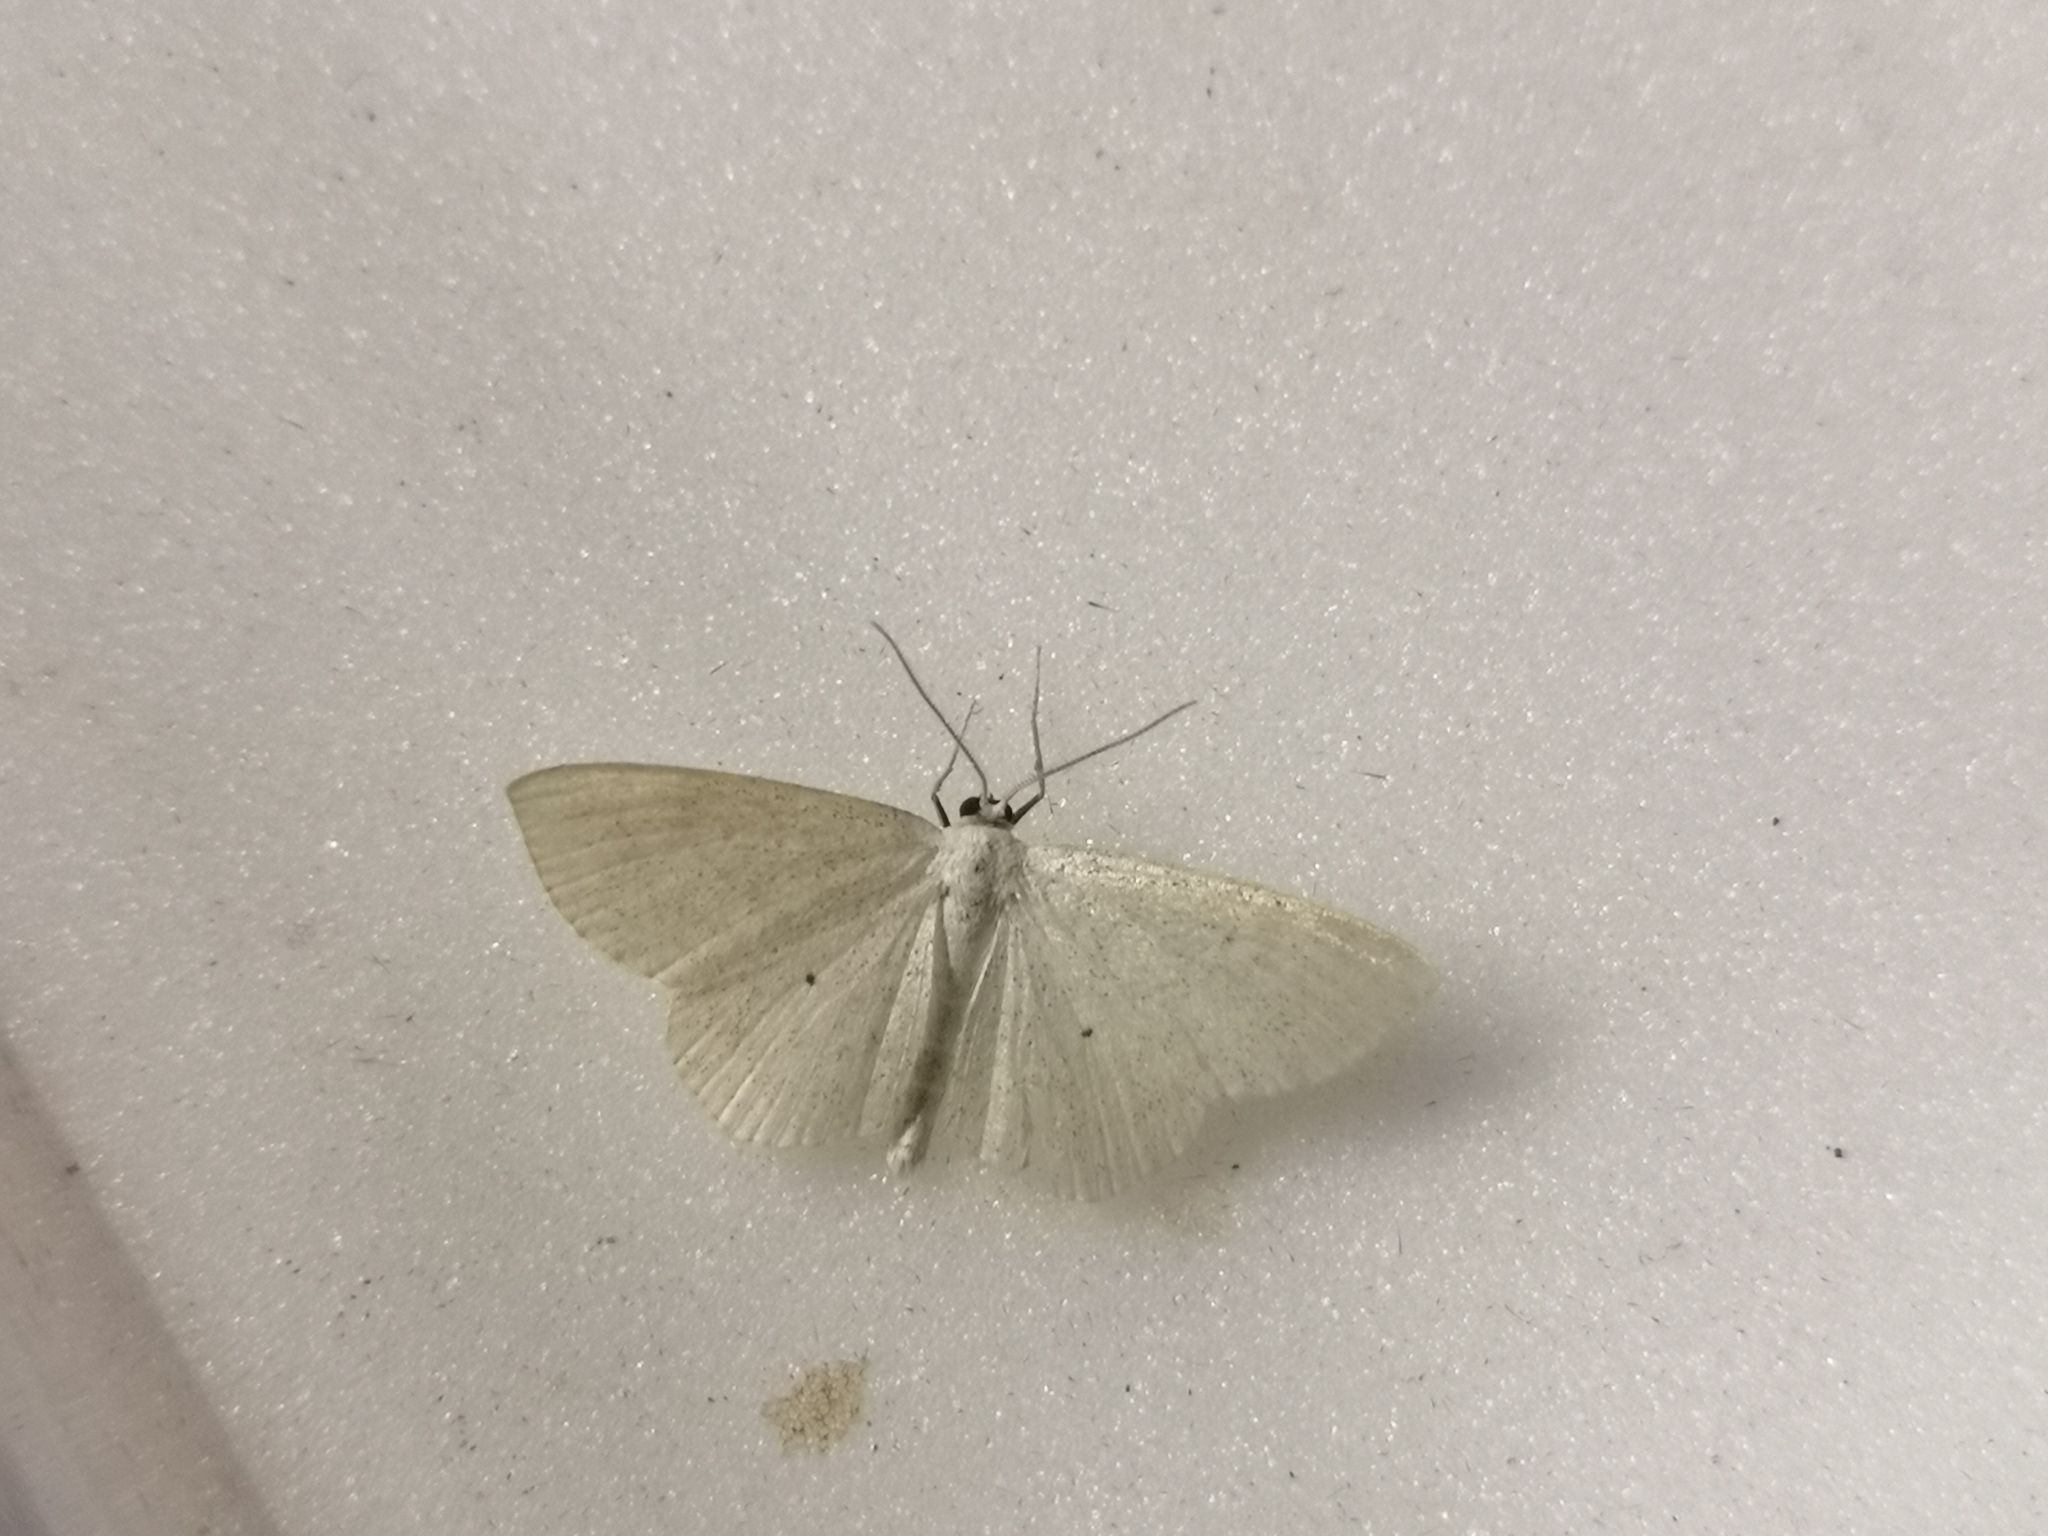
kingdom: Animalia
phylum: Arthropoda
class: Insecta
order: Lepidoptera
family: Geometridae
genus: Scopula
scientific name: Scopula immutata
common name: Lesser cream wave
